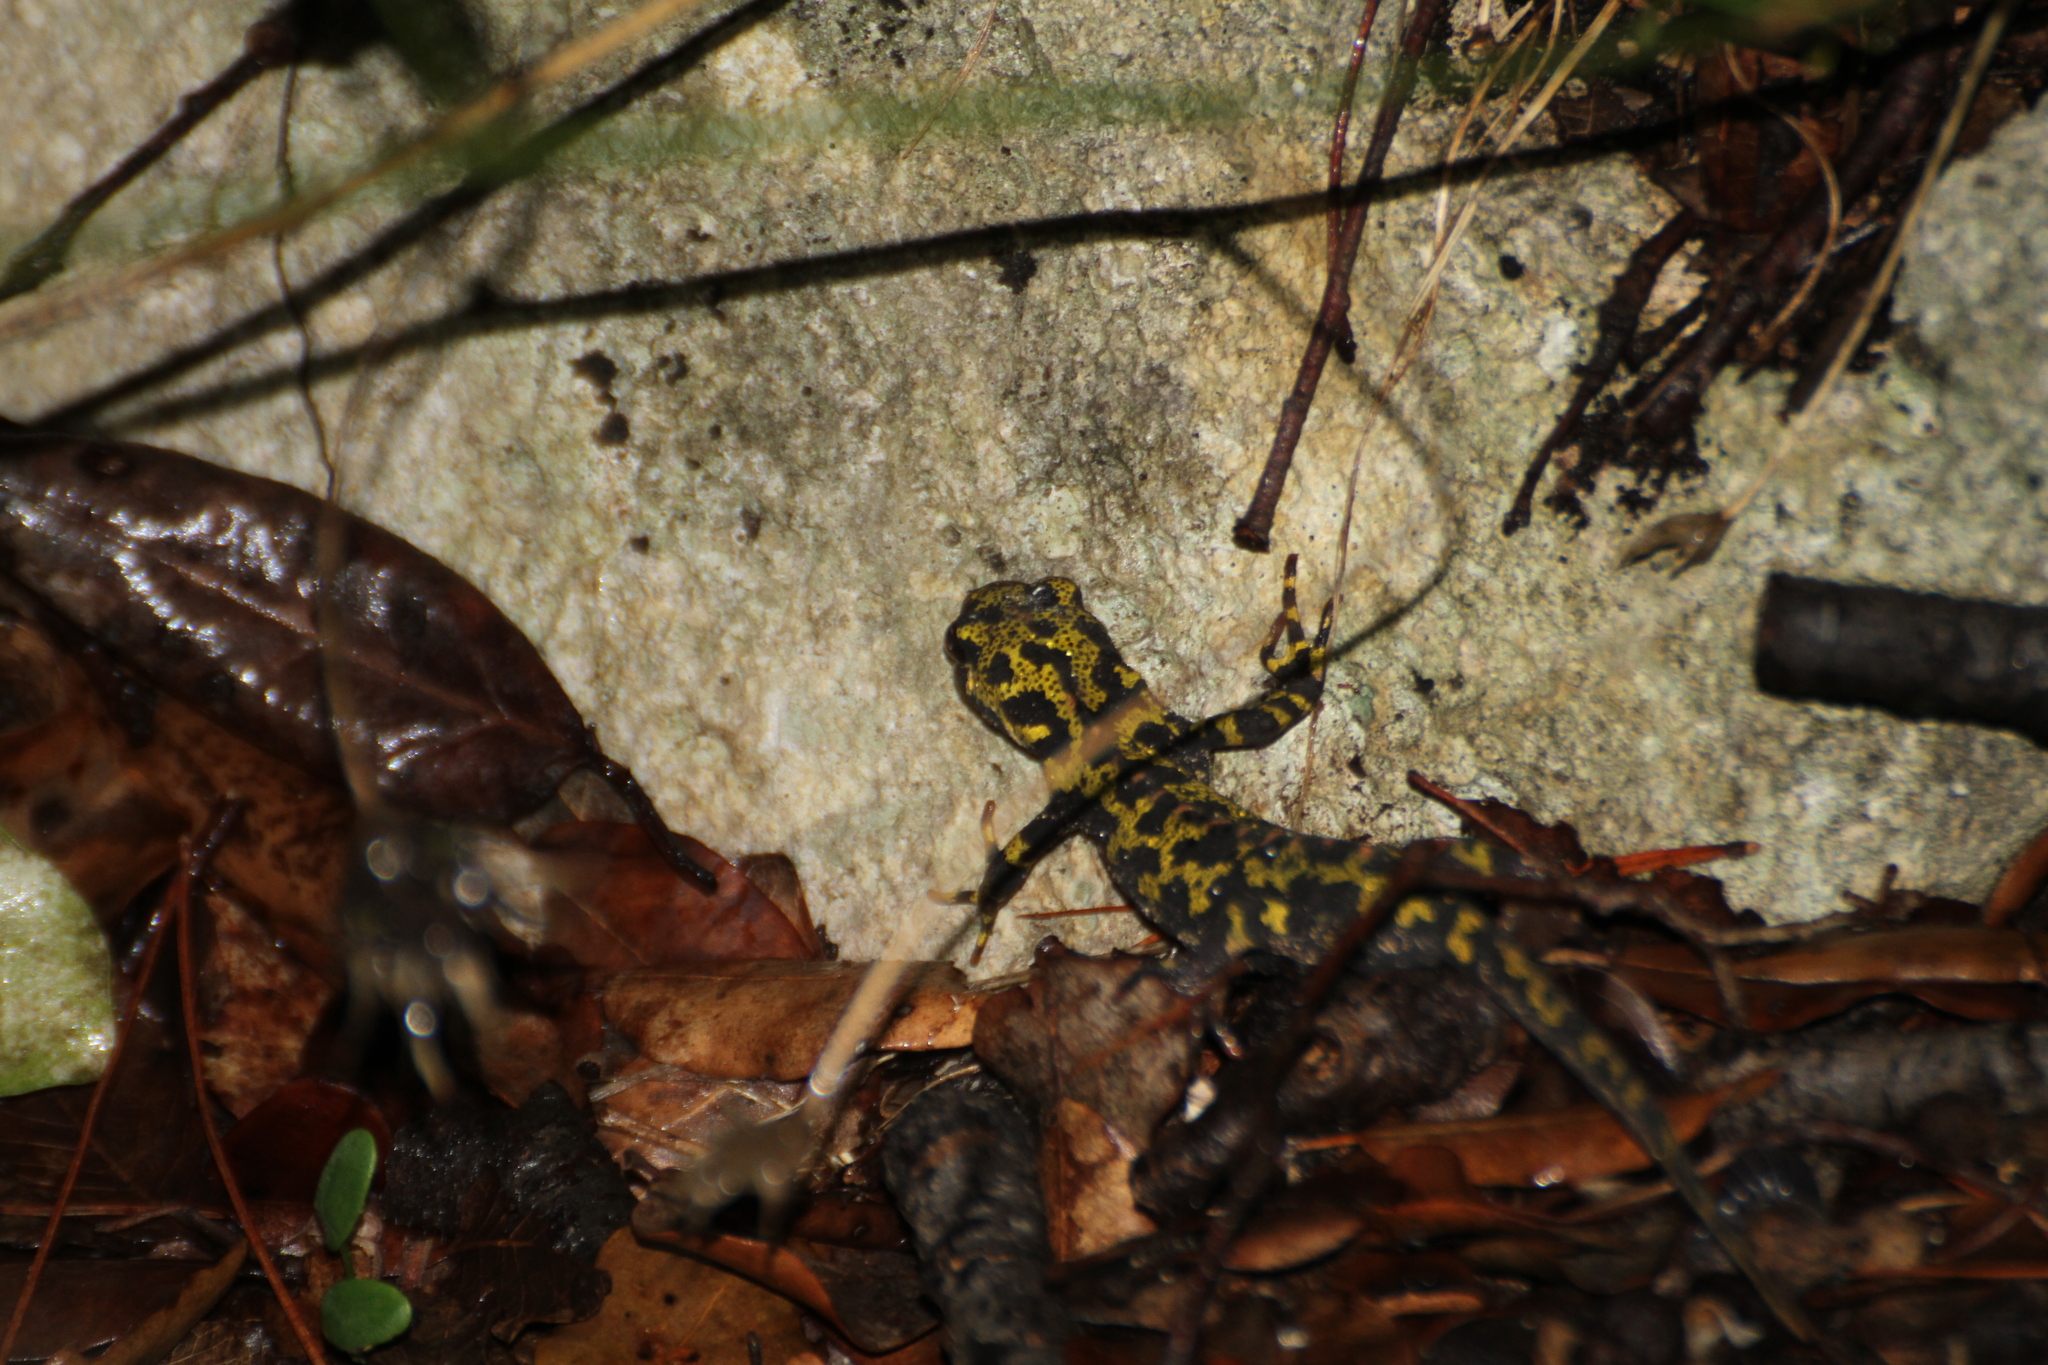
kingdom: Animalia
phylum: Chordata
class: Amphibia
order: Caudata
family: Salamandridae
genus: Triturus
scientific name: Triturus marmoratus
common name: Marbled newt
